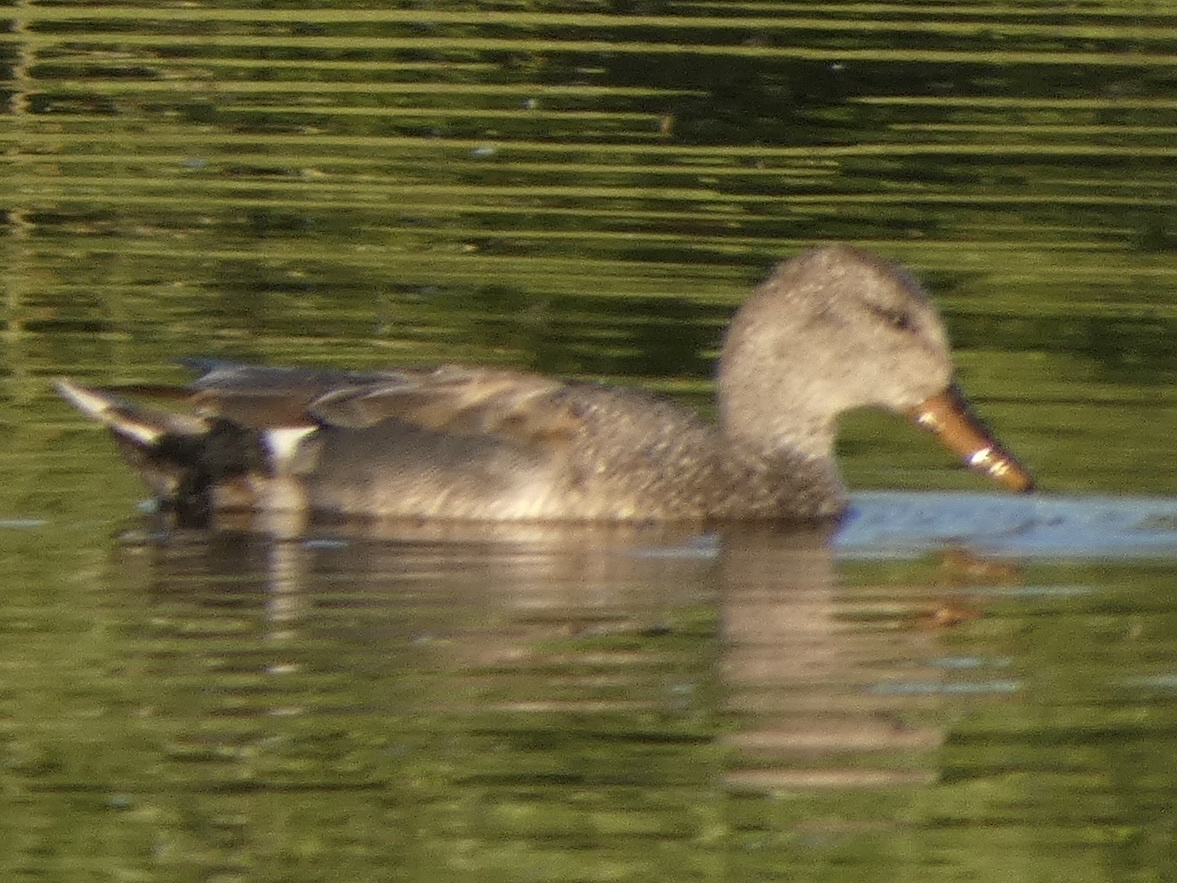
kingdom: Animalia
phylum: Chordata
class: Aves
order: Anseriformes
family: Anatidae
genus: Mareca
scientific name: Mareca strepera
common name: Gadwall
